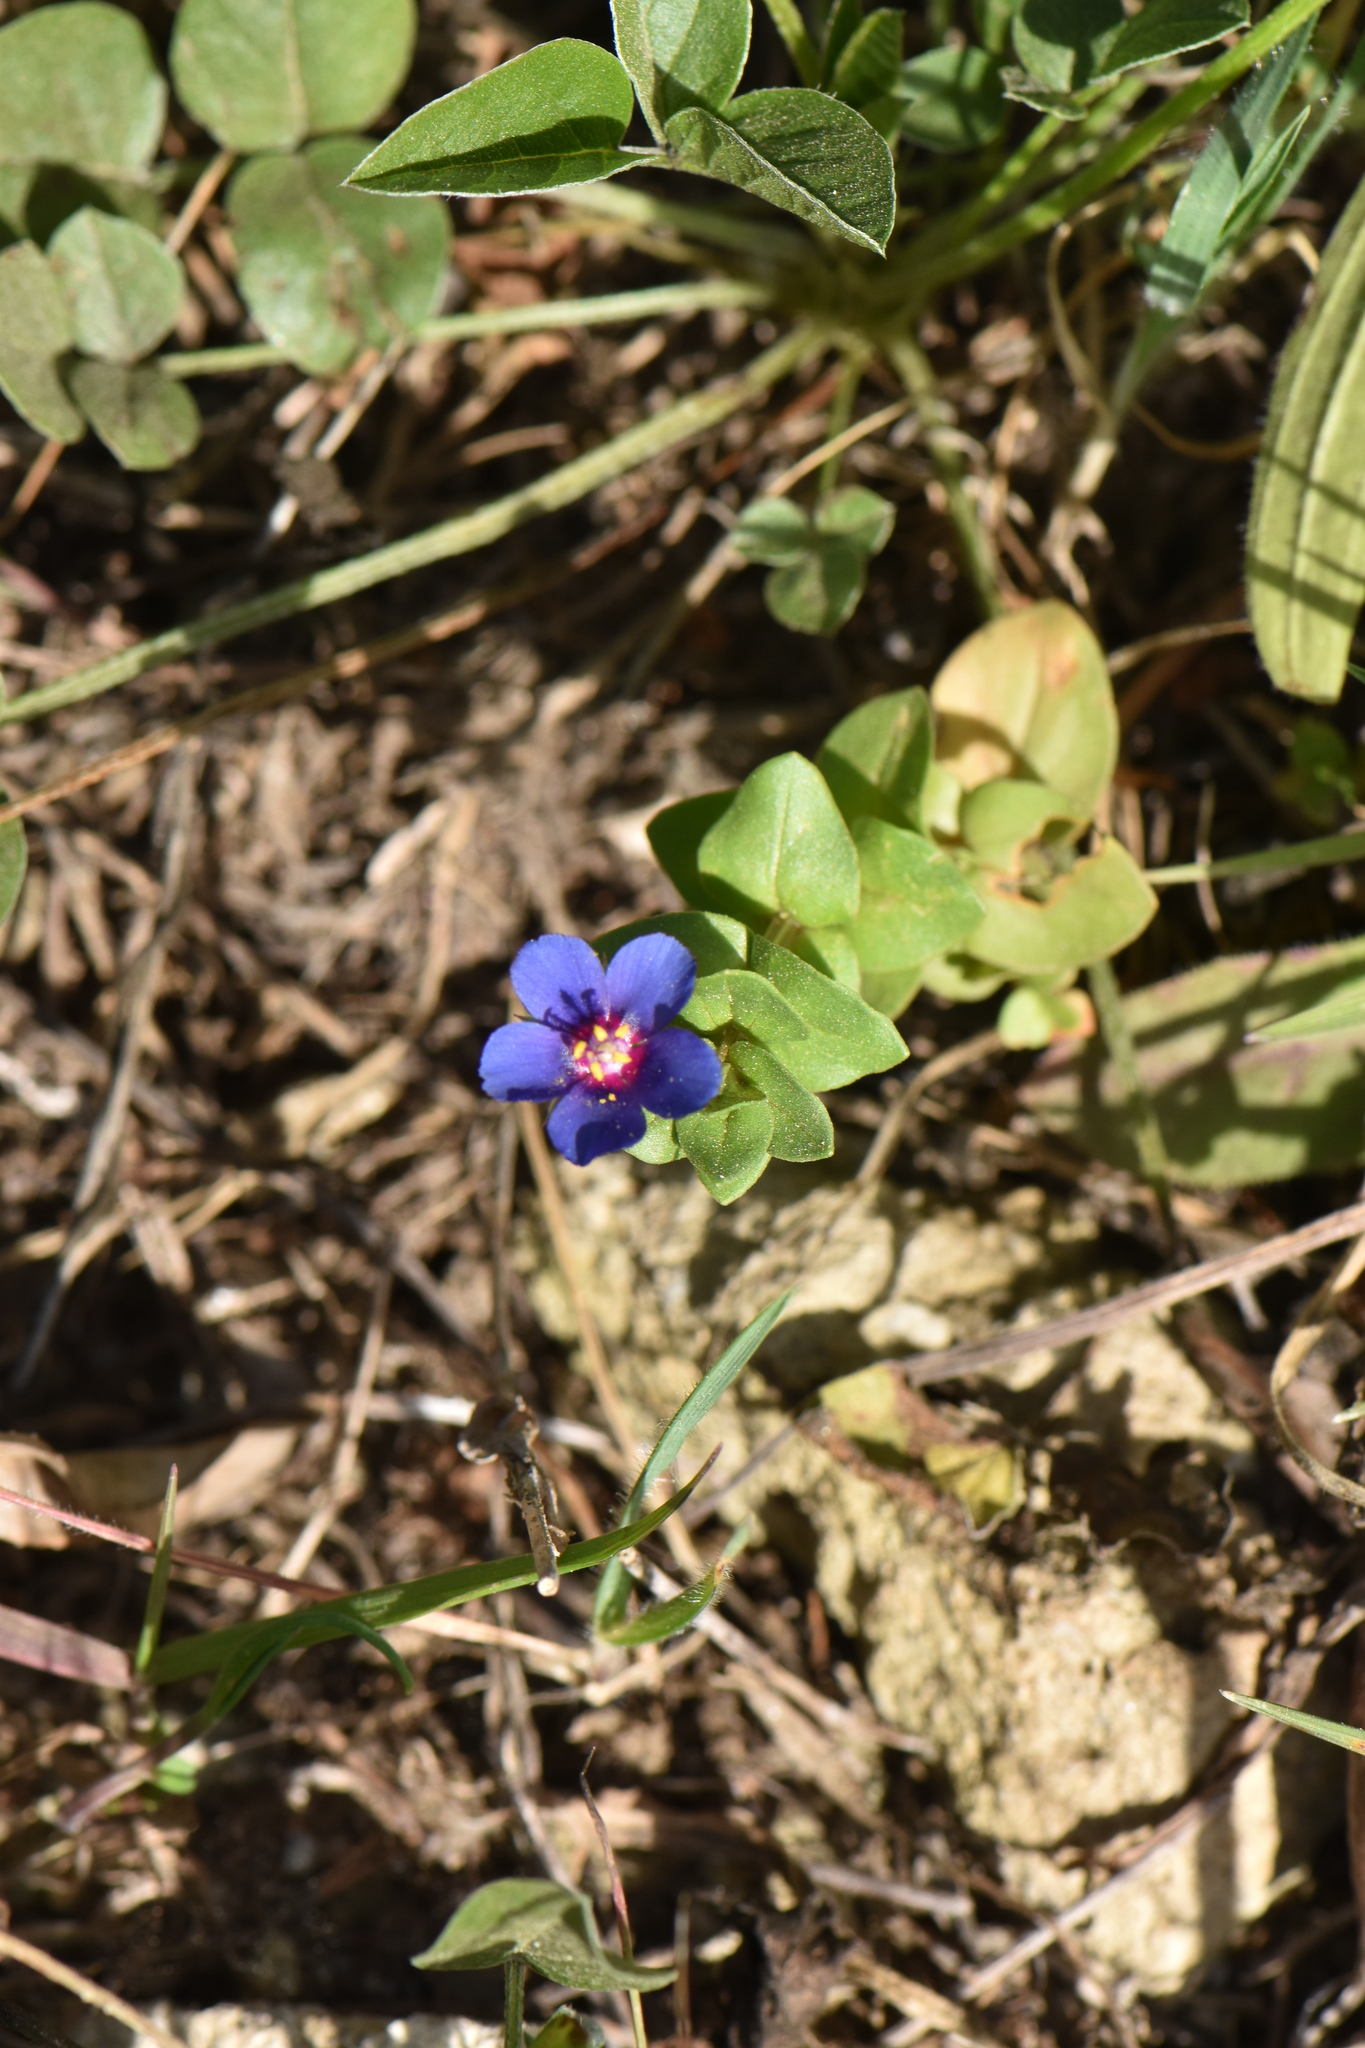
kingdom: Plantae
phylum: Tracheophyta
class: Magnoliopsida
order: Ericales
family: Primulaceae
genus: Lysimachia
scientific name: Lysimachia arvensis
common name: Scarlet pimpernel
